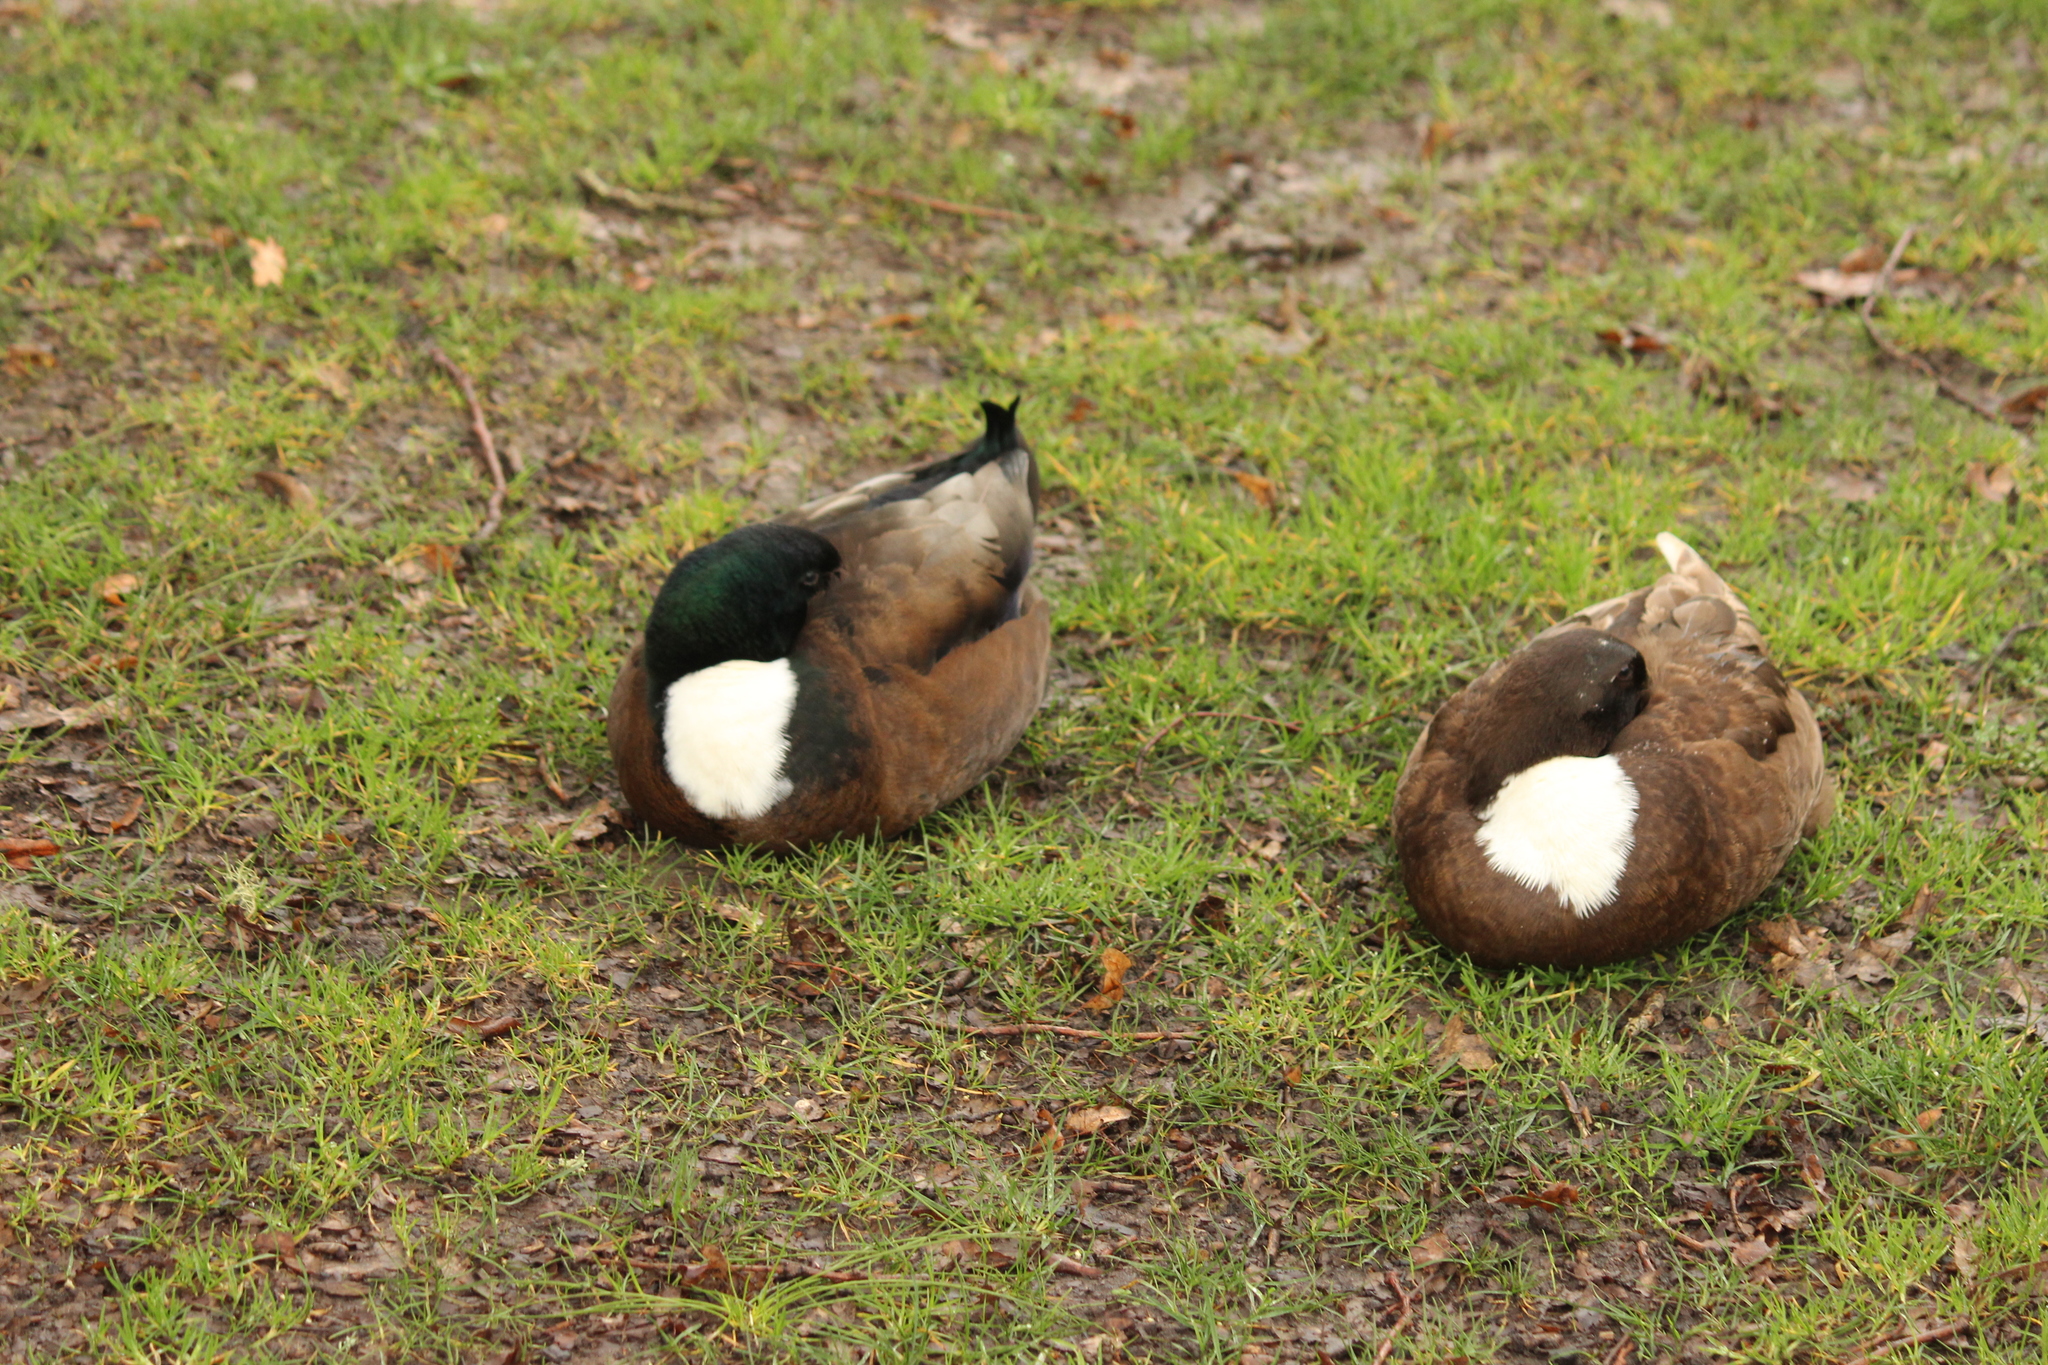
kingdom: Animalia
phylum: Chordata
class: Aves
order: Anseriformes
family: Anatidae
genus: Anas
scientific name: Anas platyrhynchos
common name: Mallard
